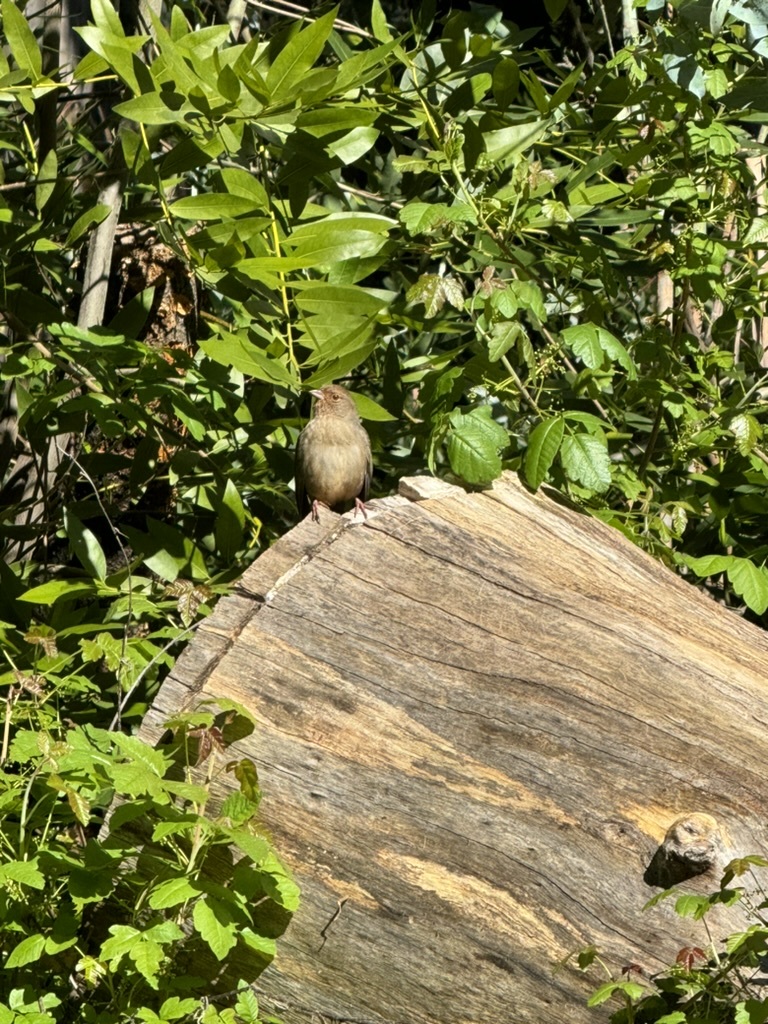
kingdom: Animalia
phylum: Chordata
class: Aves
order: Passeriformes
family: Passerellidae
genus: Melozone
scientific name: Melozone crissalis
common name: California towhee
